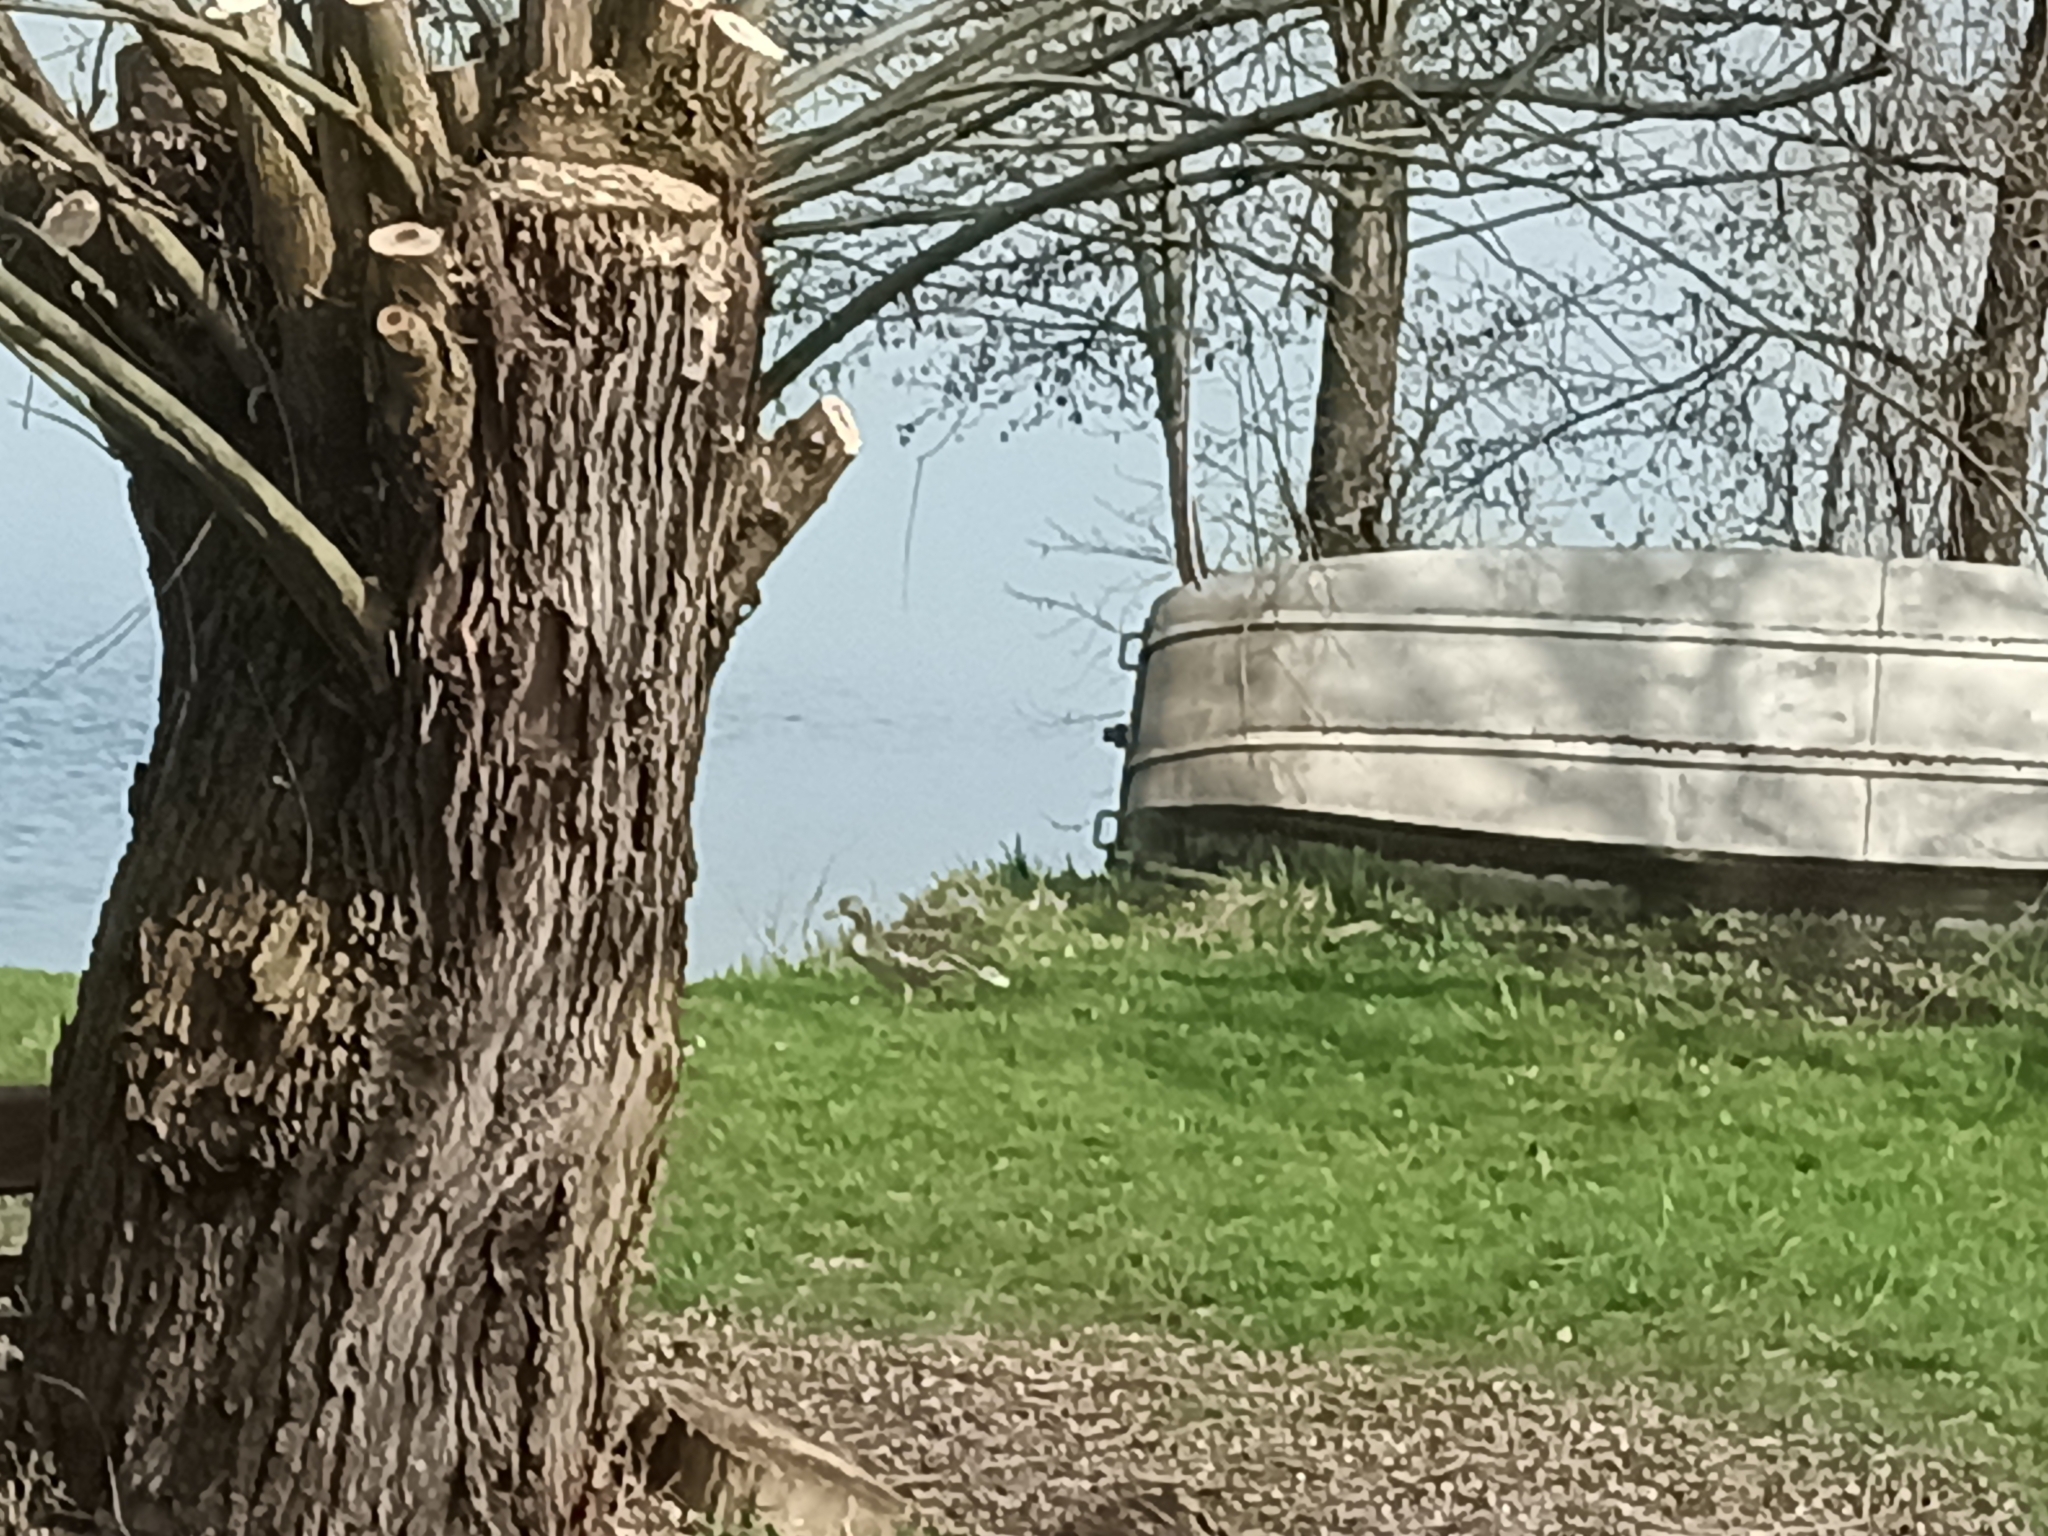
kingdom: Animalia
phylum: Chordata
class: Aves
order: Anseriformes
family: Anatidae
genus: Anser
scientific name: Anser anser
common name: Greylag goose
